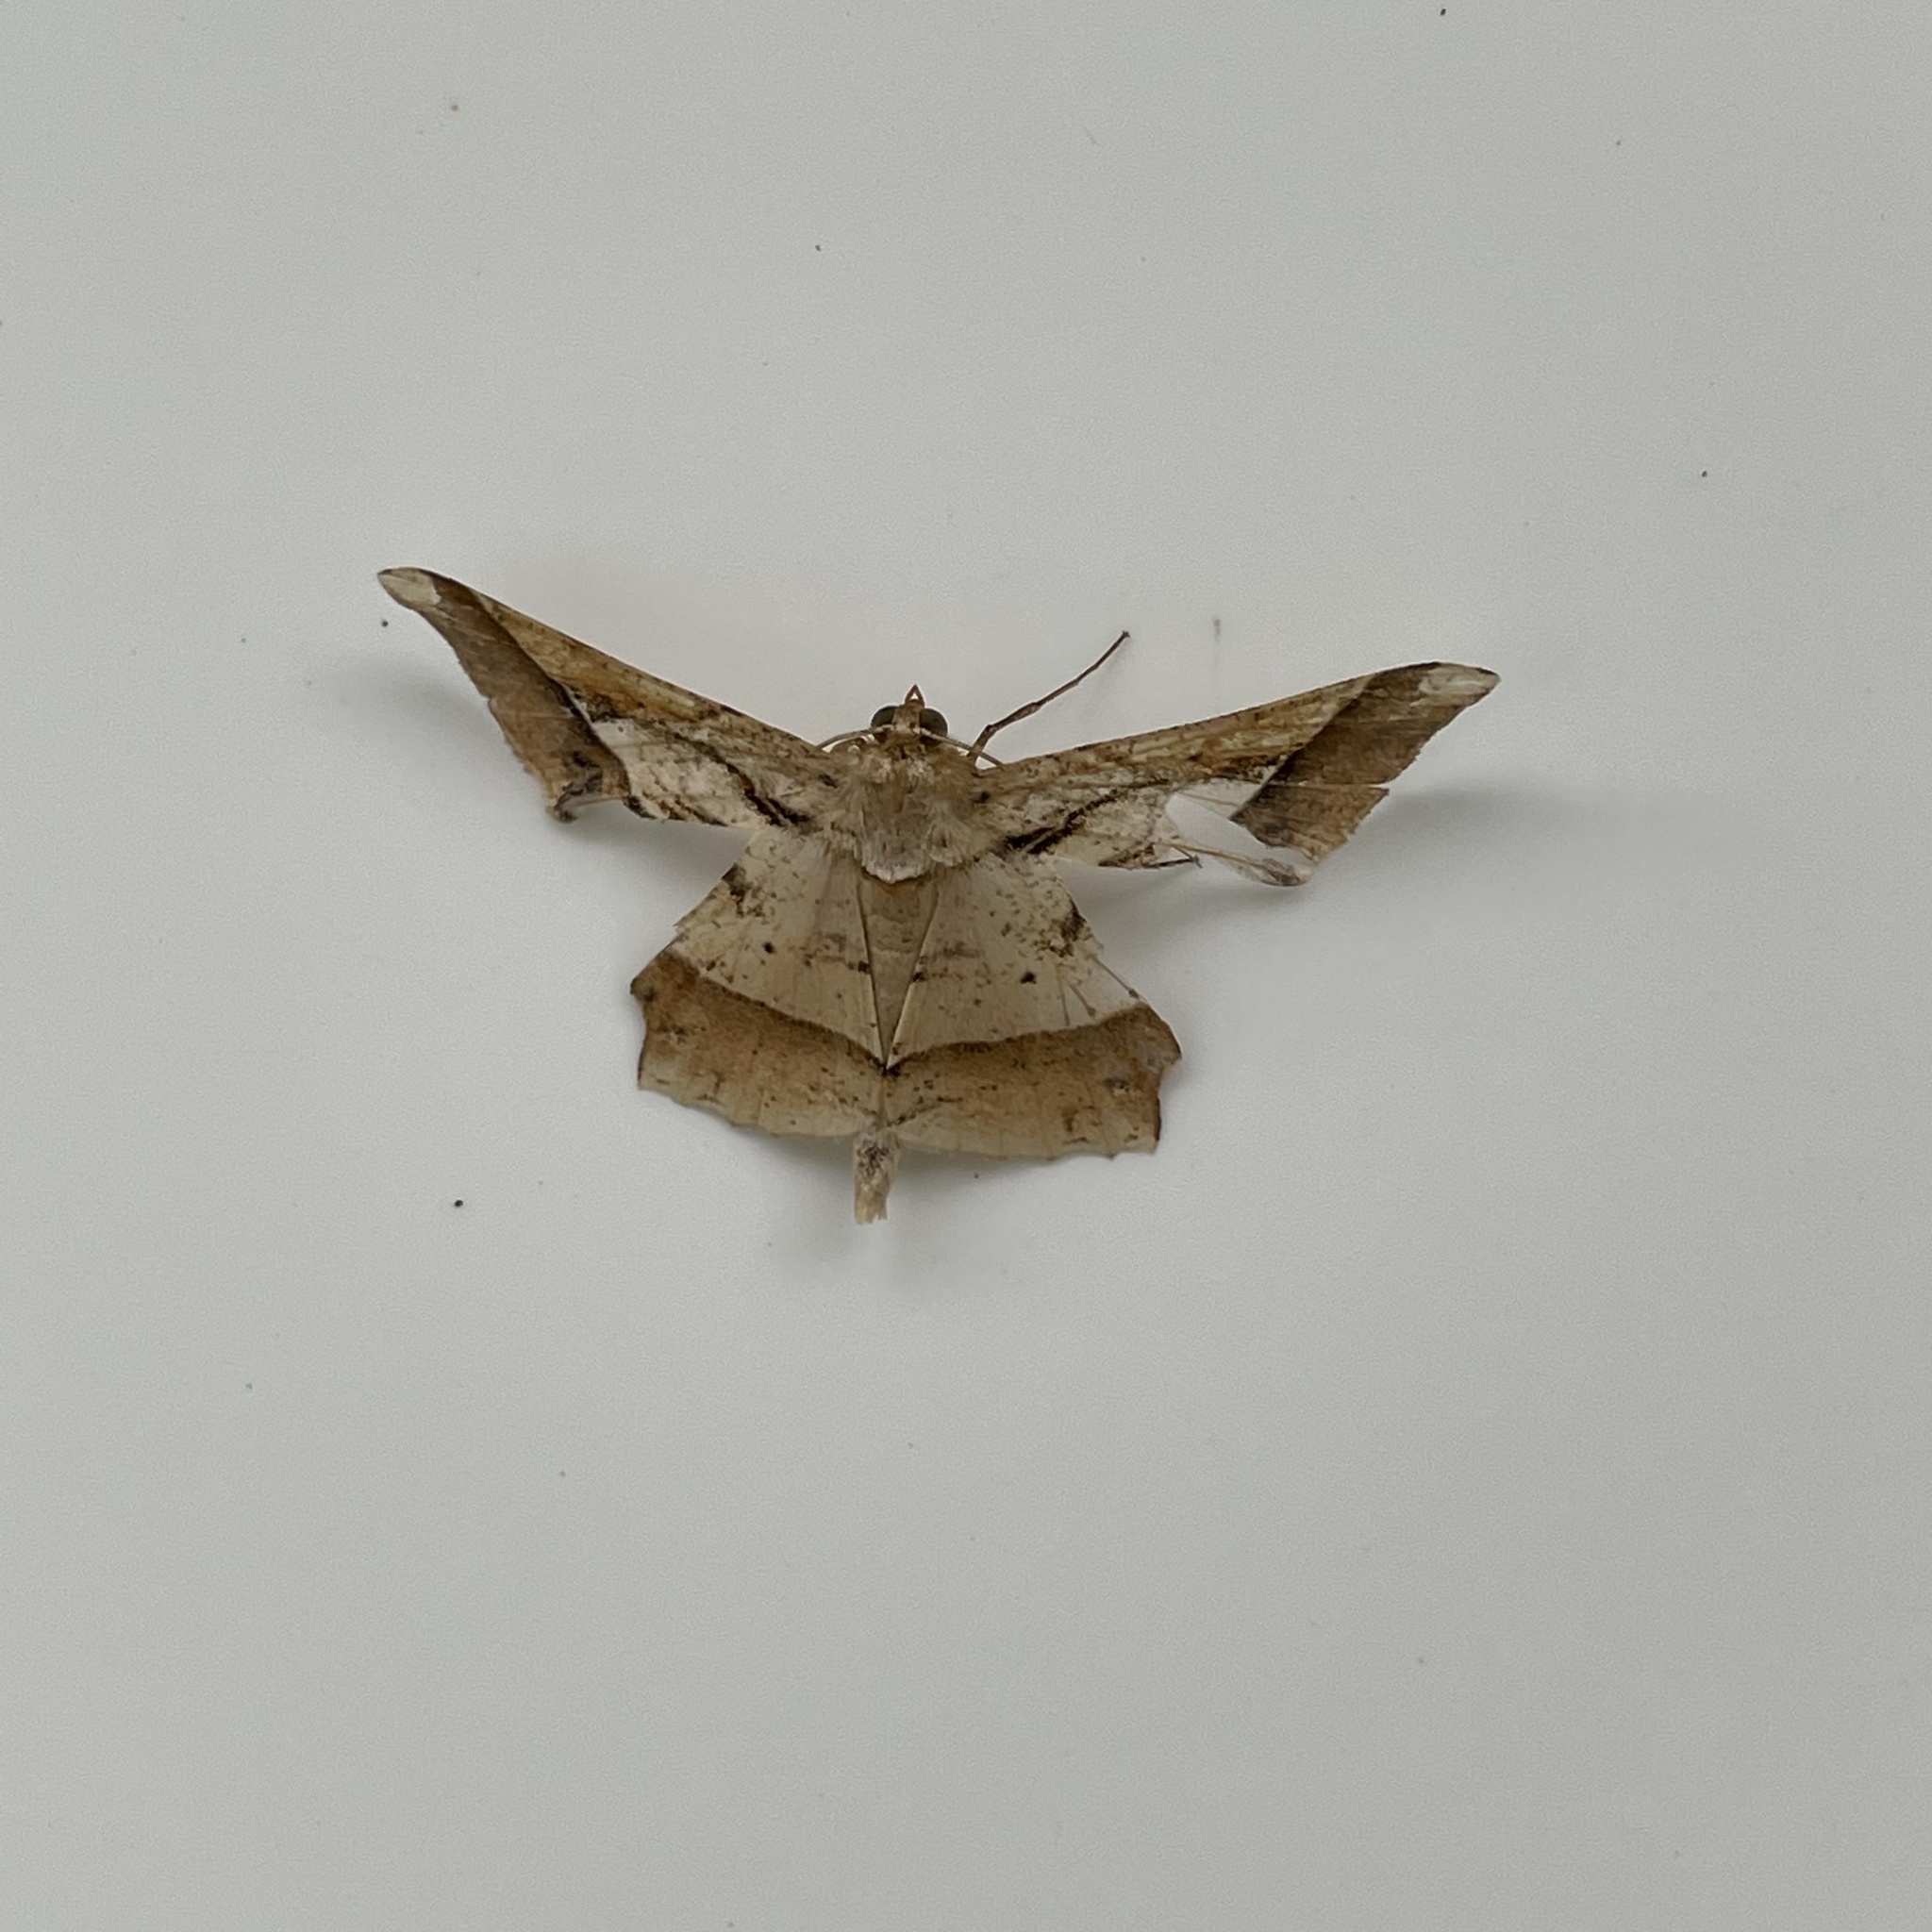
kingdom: Animalia
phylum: Arthropoda
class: Insecta
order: Lepidoptera
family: Geometridae
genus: Krananda
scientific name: Krananda latimarginaria
